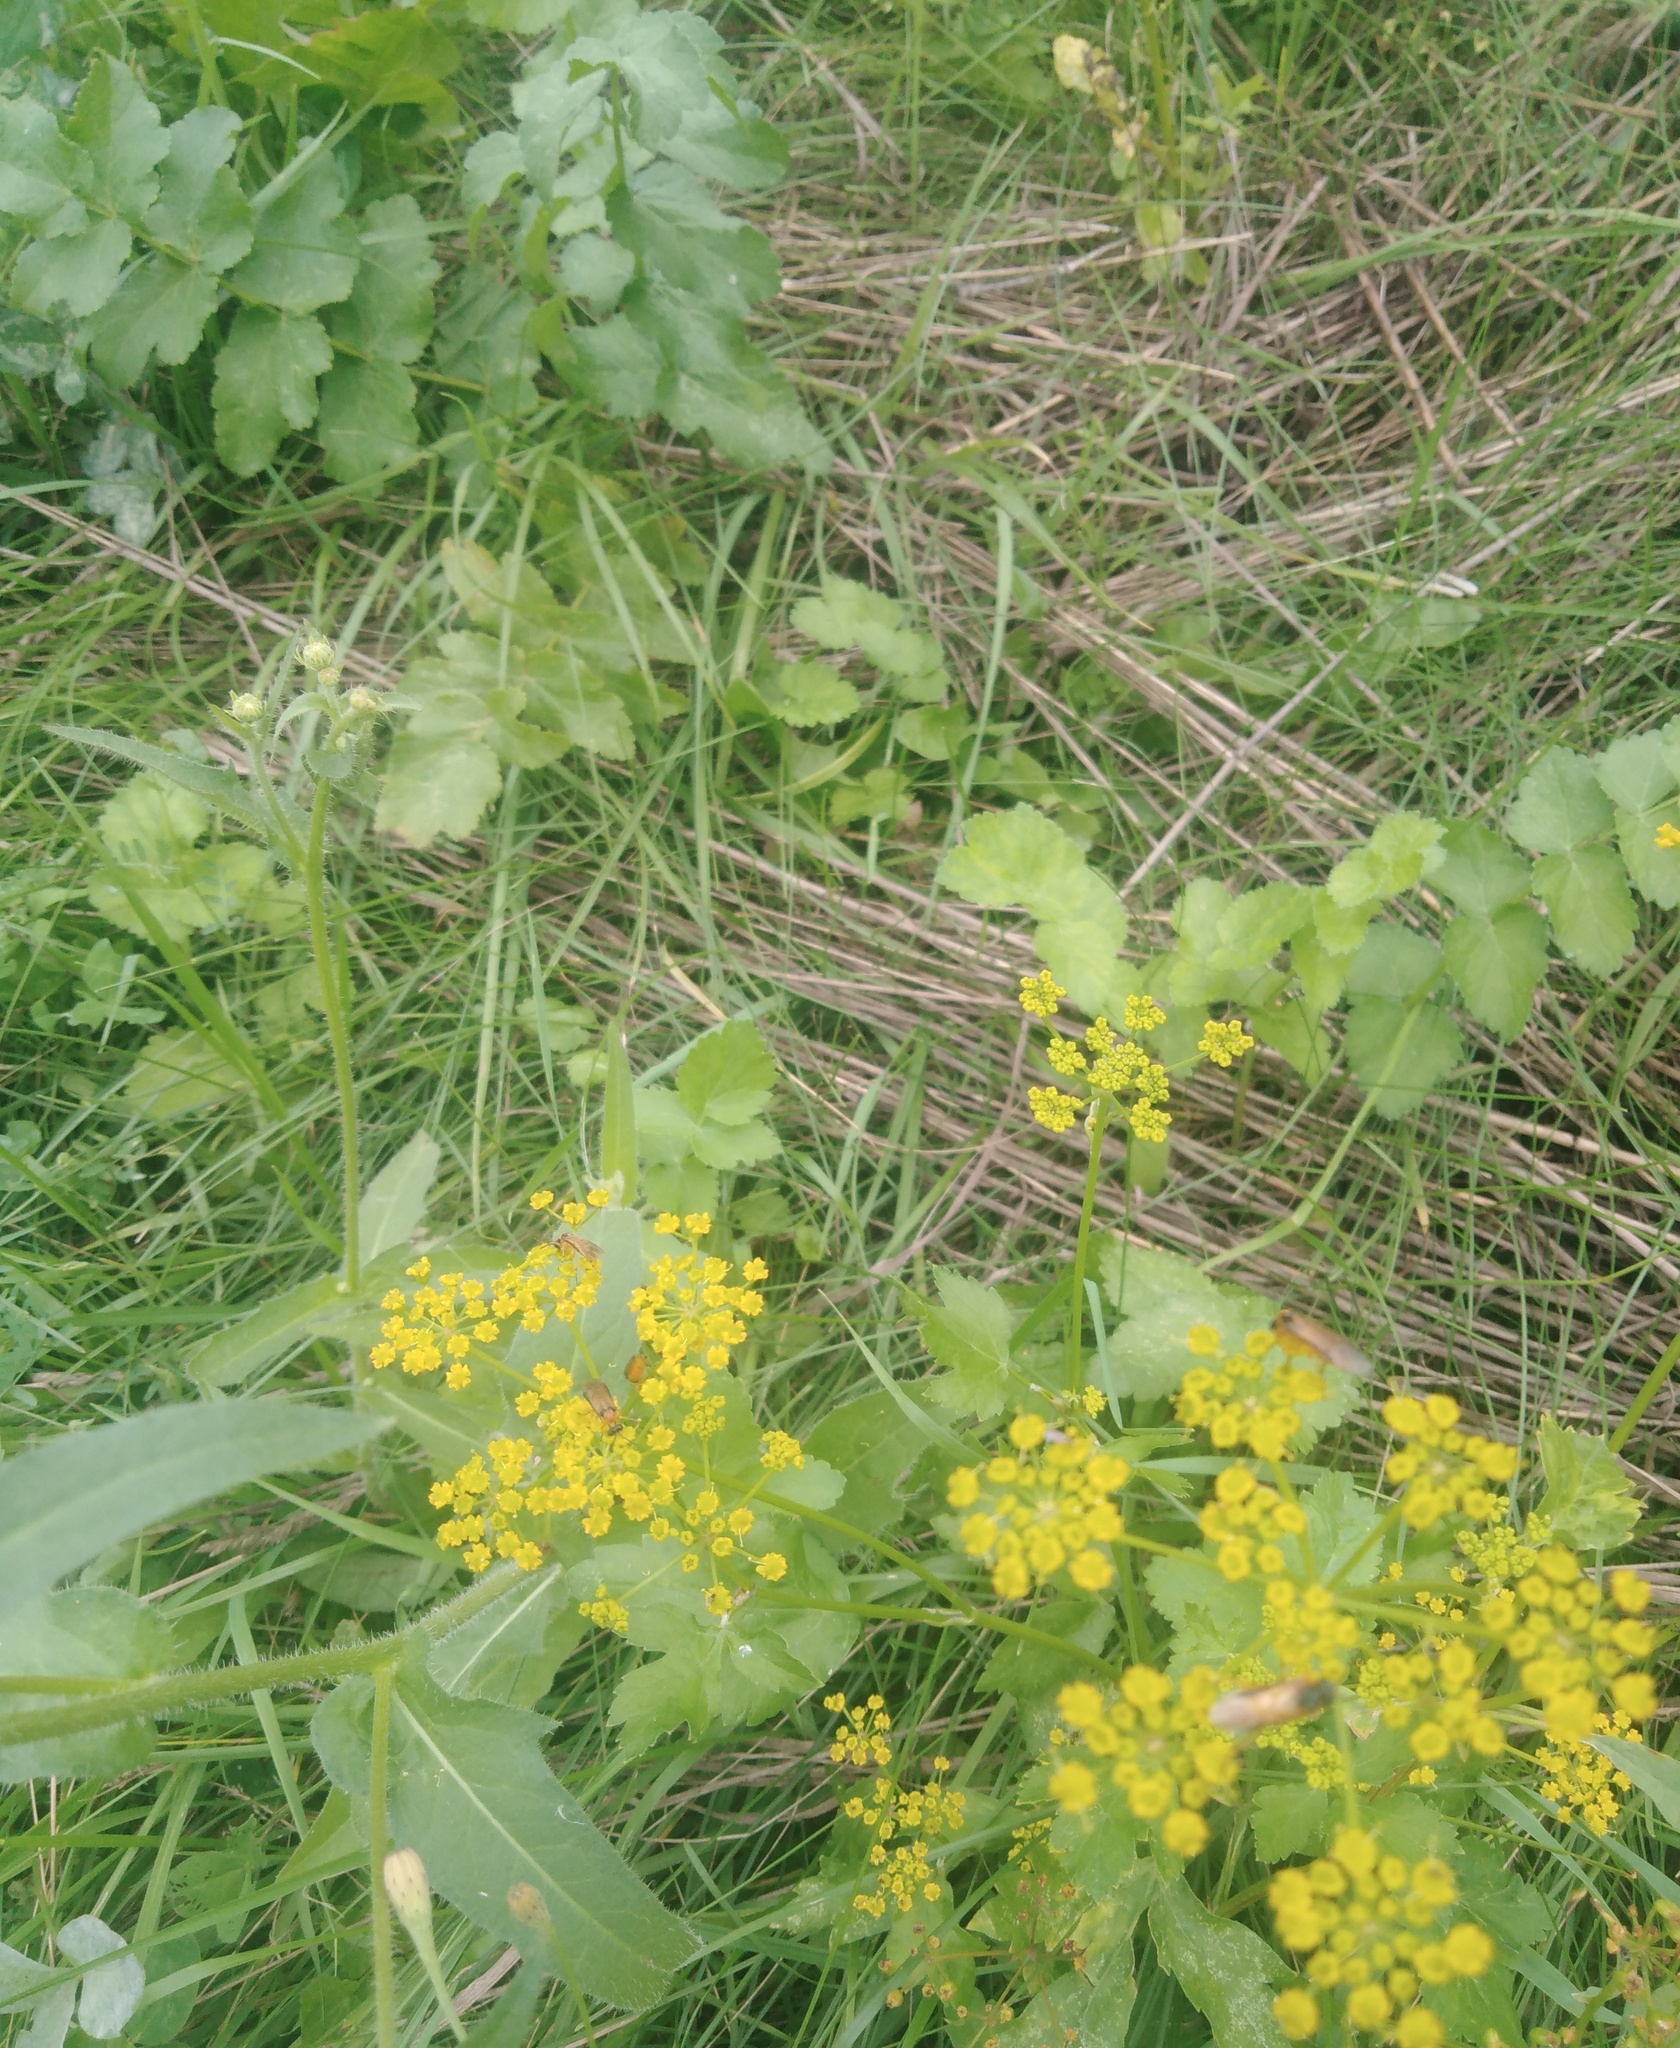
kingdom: Plantae
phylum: Tracheophyta
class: Magnoliopsida
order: Apiales
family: Apiaceae
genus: Pastinaca
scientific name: Pastinaca sativa
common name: Wild parsnip
